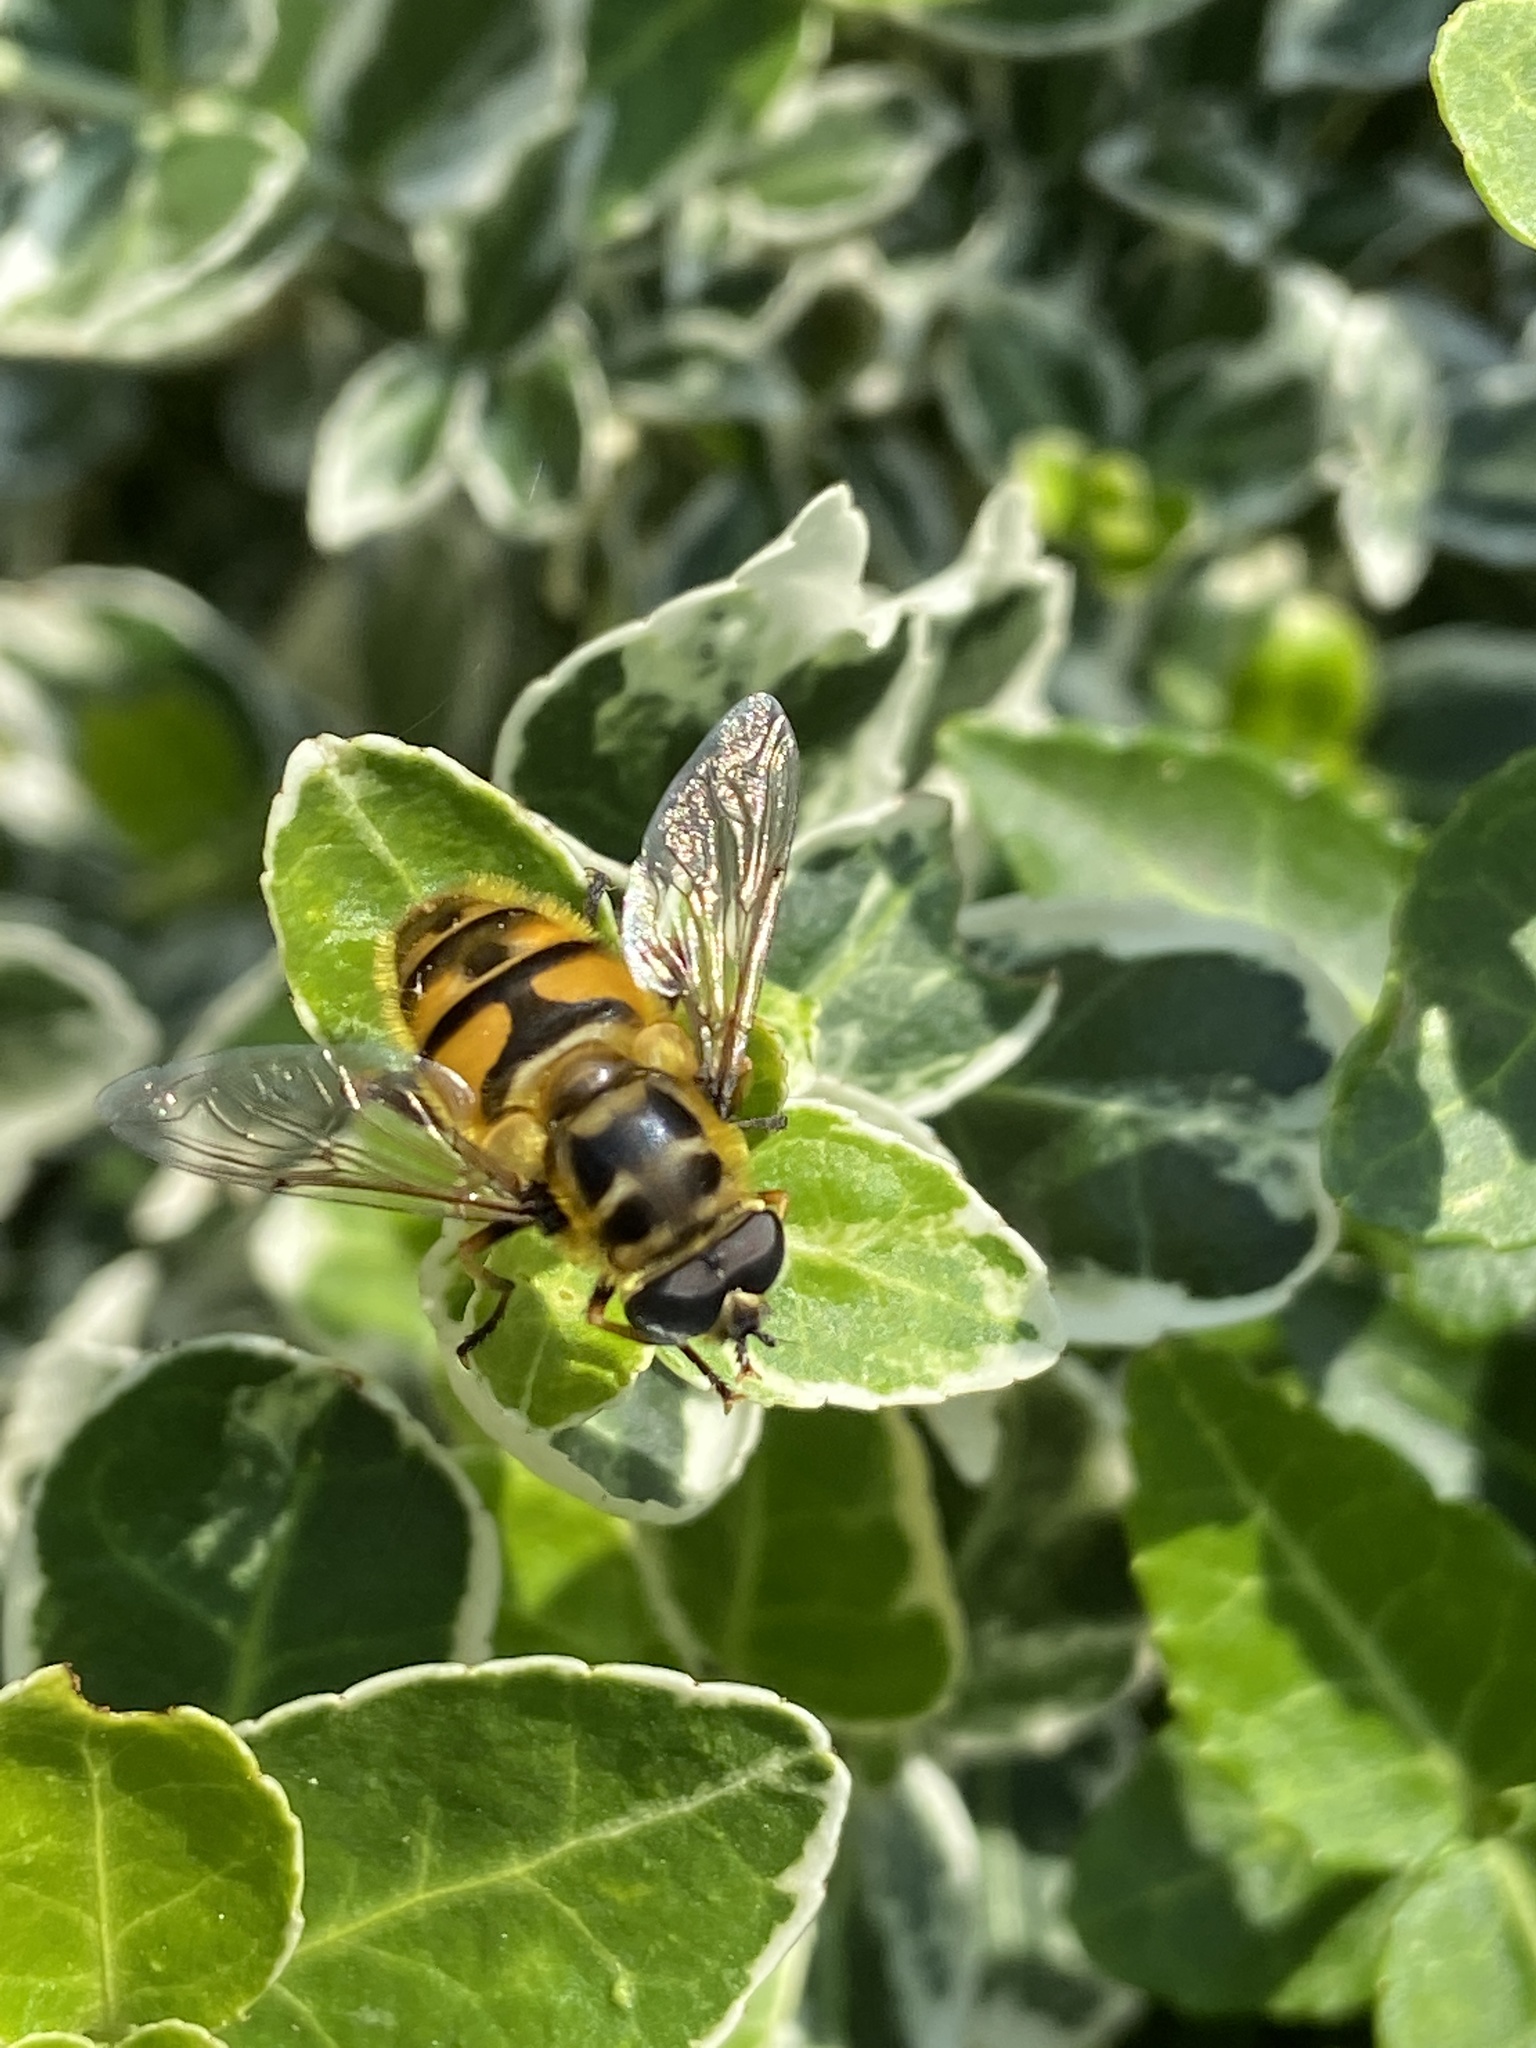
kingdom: Animalia
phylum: Arthropoda
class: Insecta
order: Diptera
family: Syrphidae
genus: Myathropa
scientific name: Myathropa florea
